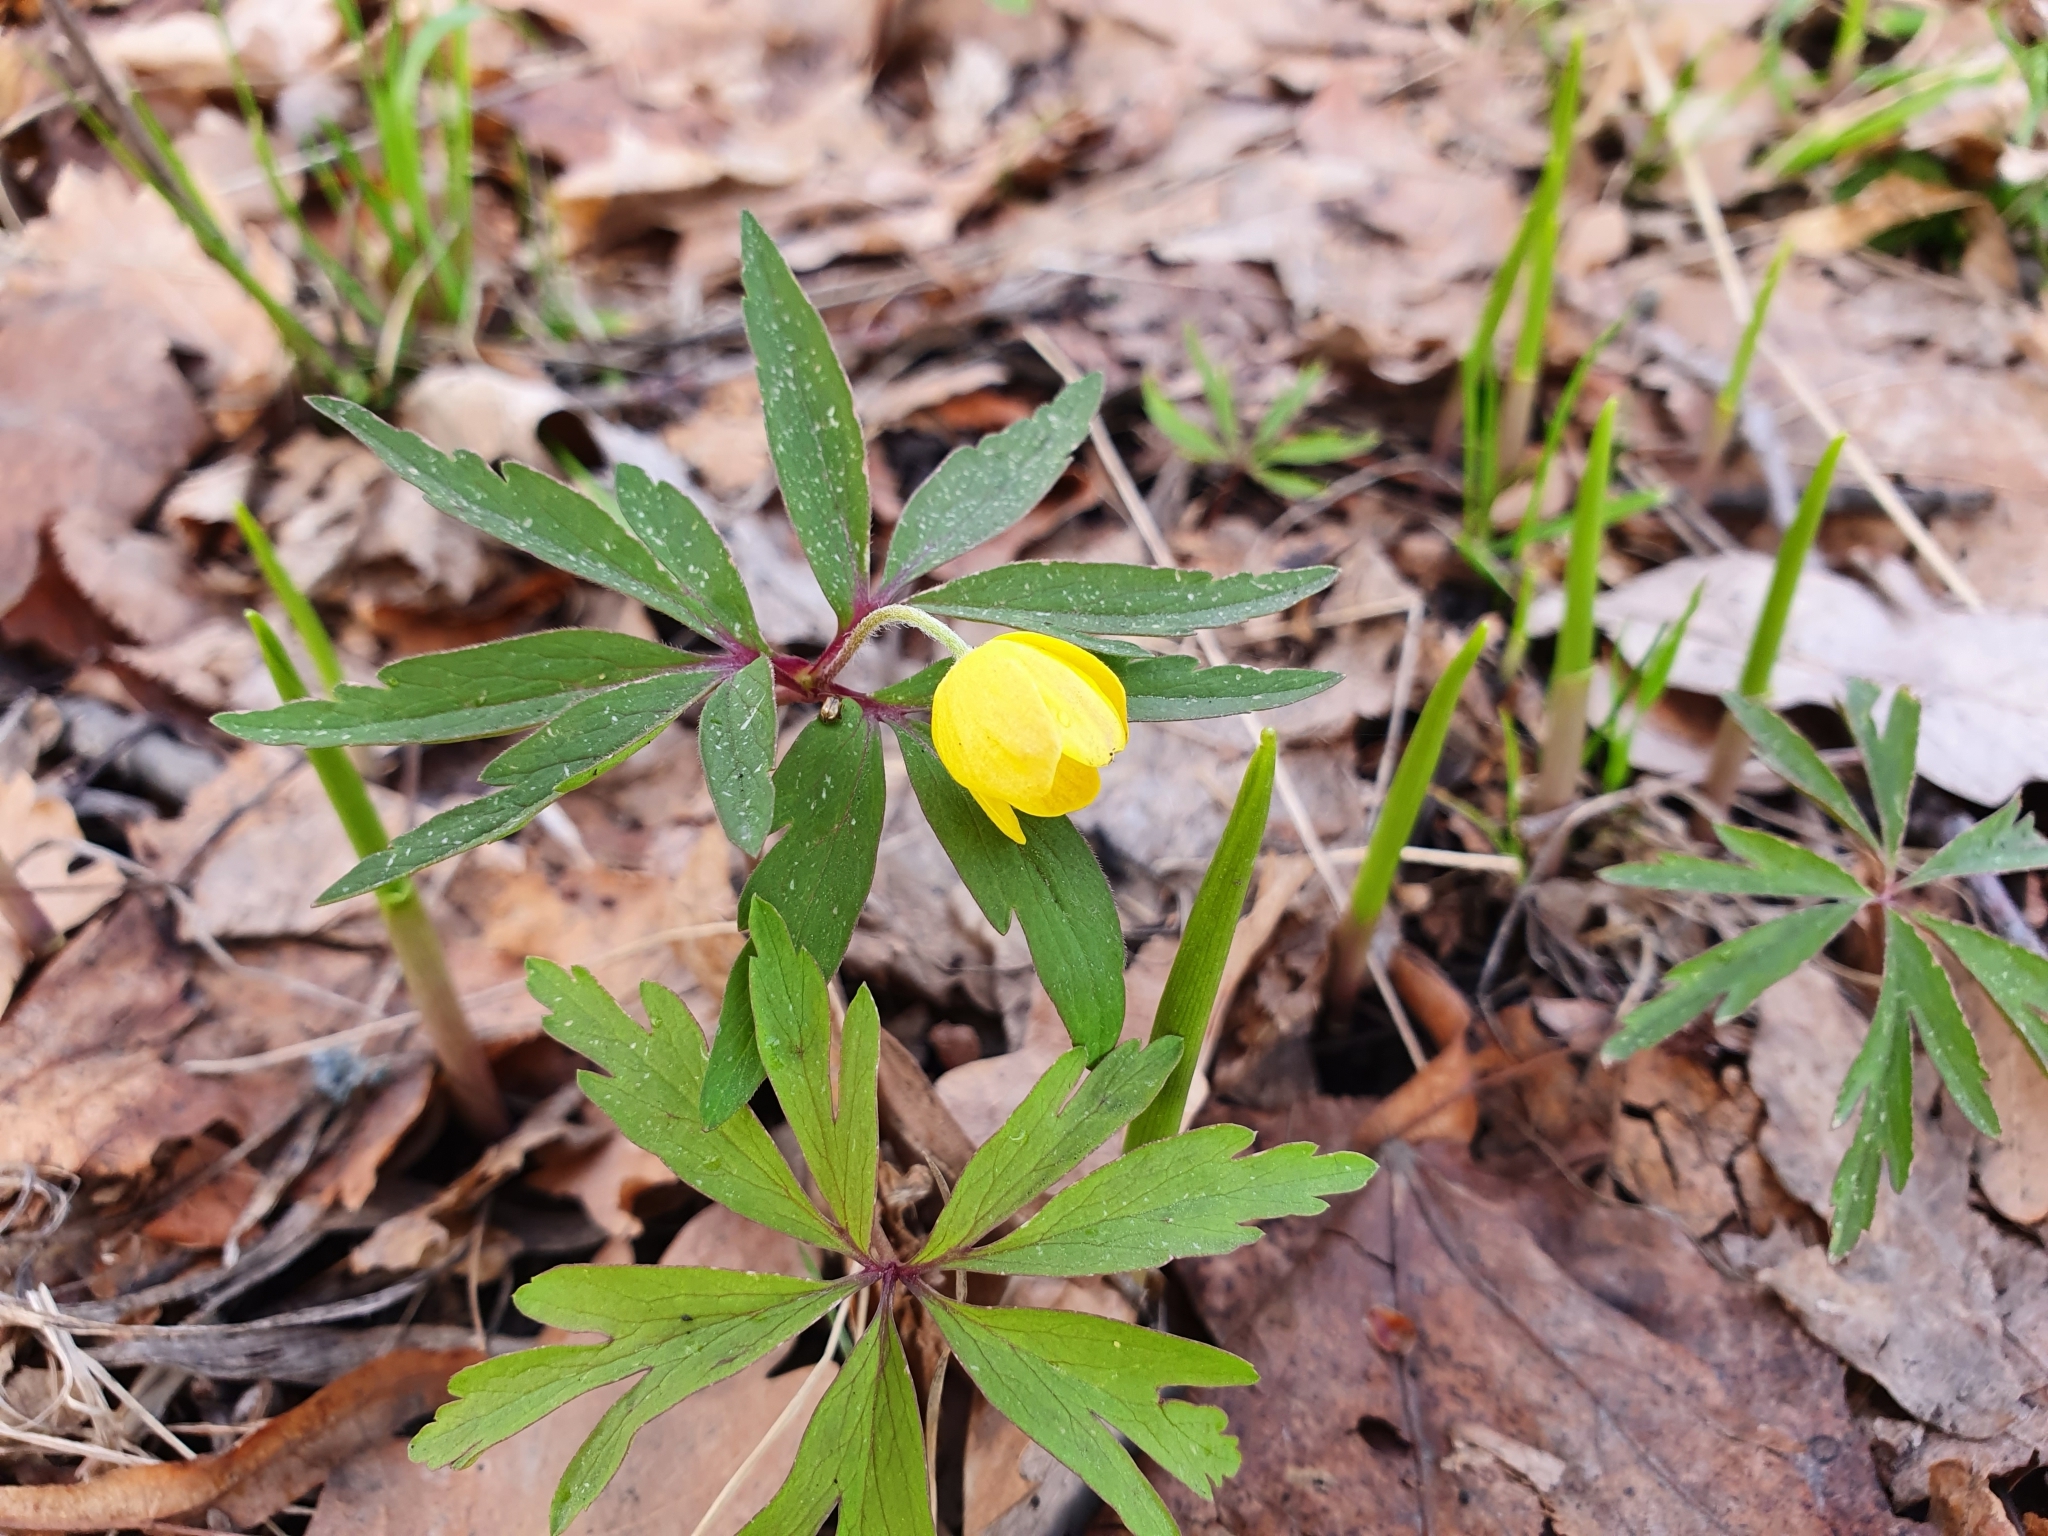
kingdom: Plantae
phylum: Tracheophyta
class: Magnoliopsida
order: Ranunculales
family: Ranunculaceae
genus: Anemone
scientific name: Anemone ranunculoides
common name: Yellow anemone
